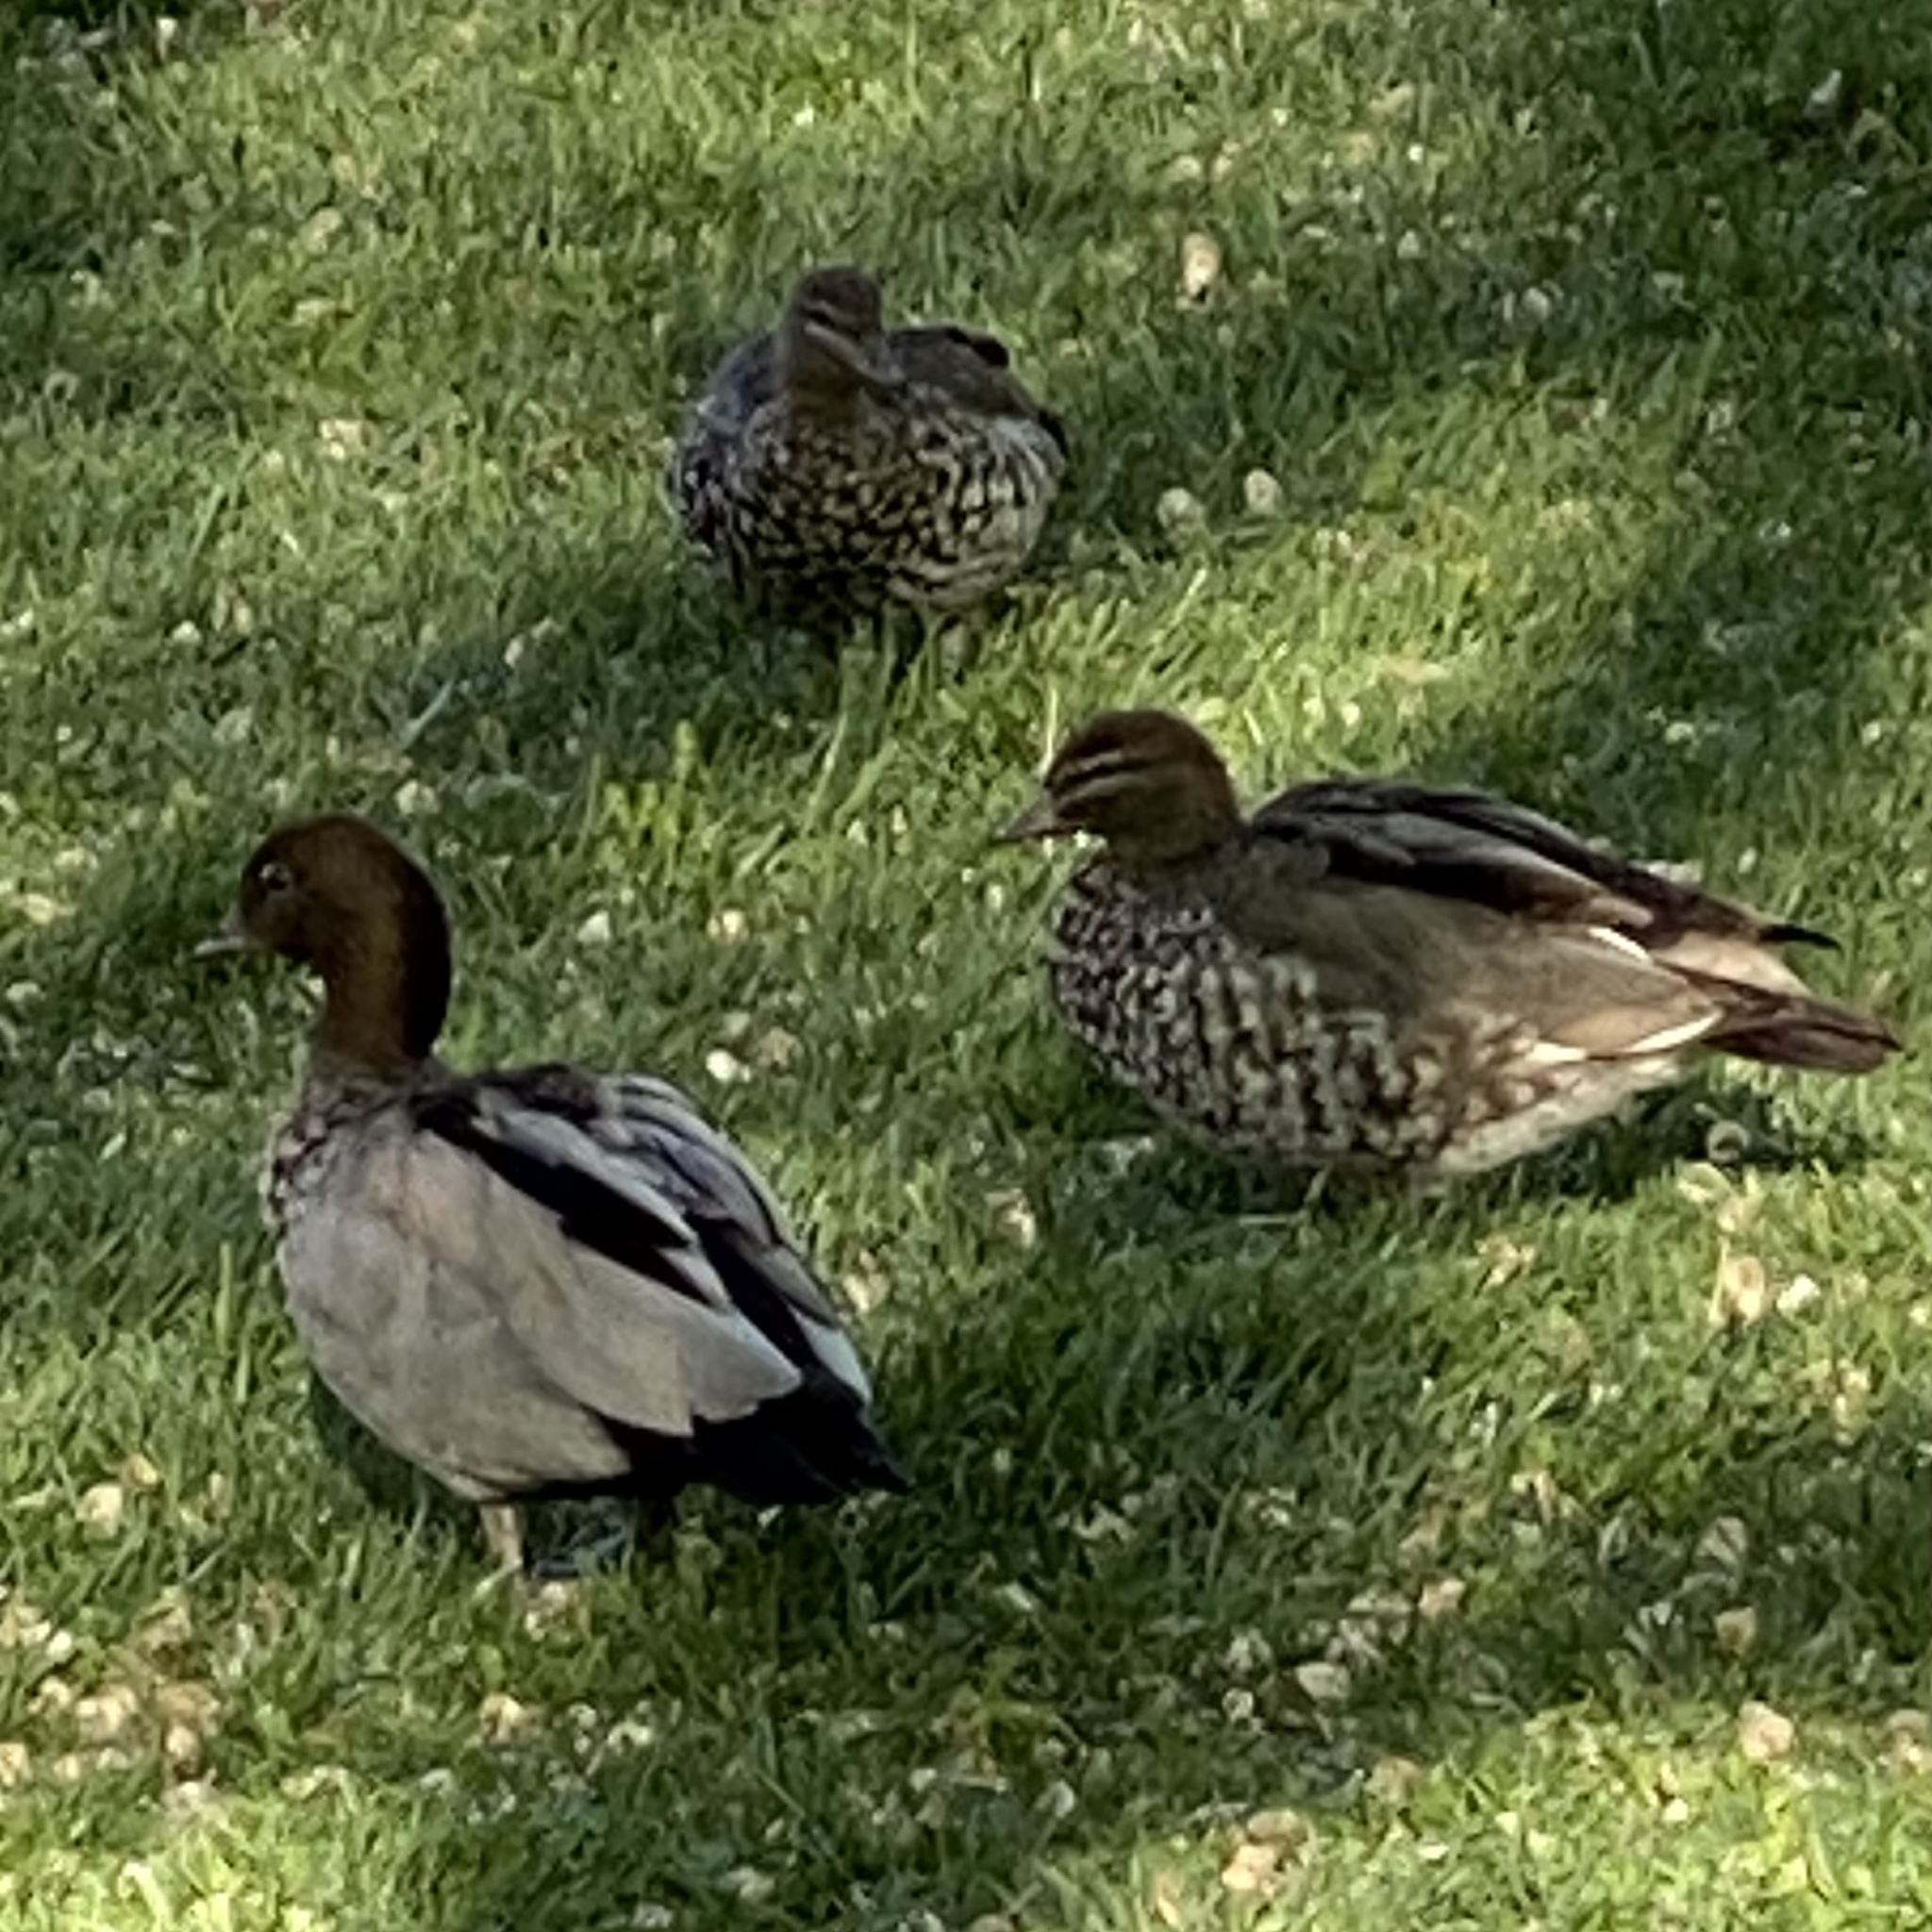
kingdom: Animalia
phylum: Chordata
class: Aves
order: Anseriformes
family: Anatidae
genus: Chenonetta
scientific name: Chenonetta jubata
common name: Maned duck
